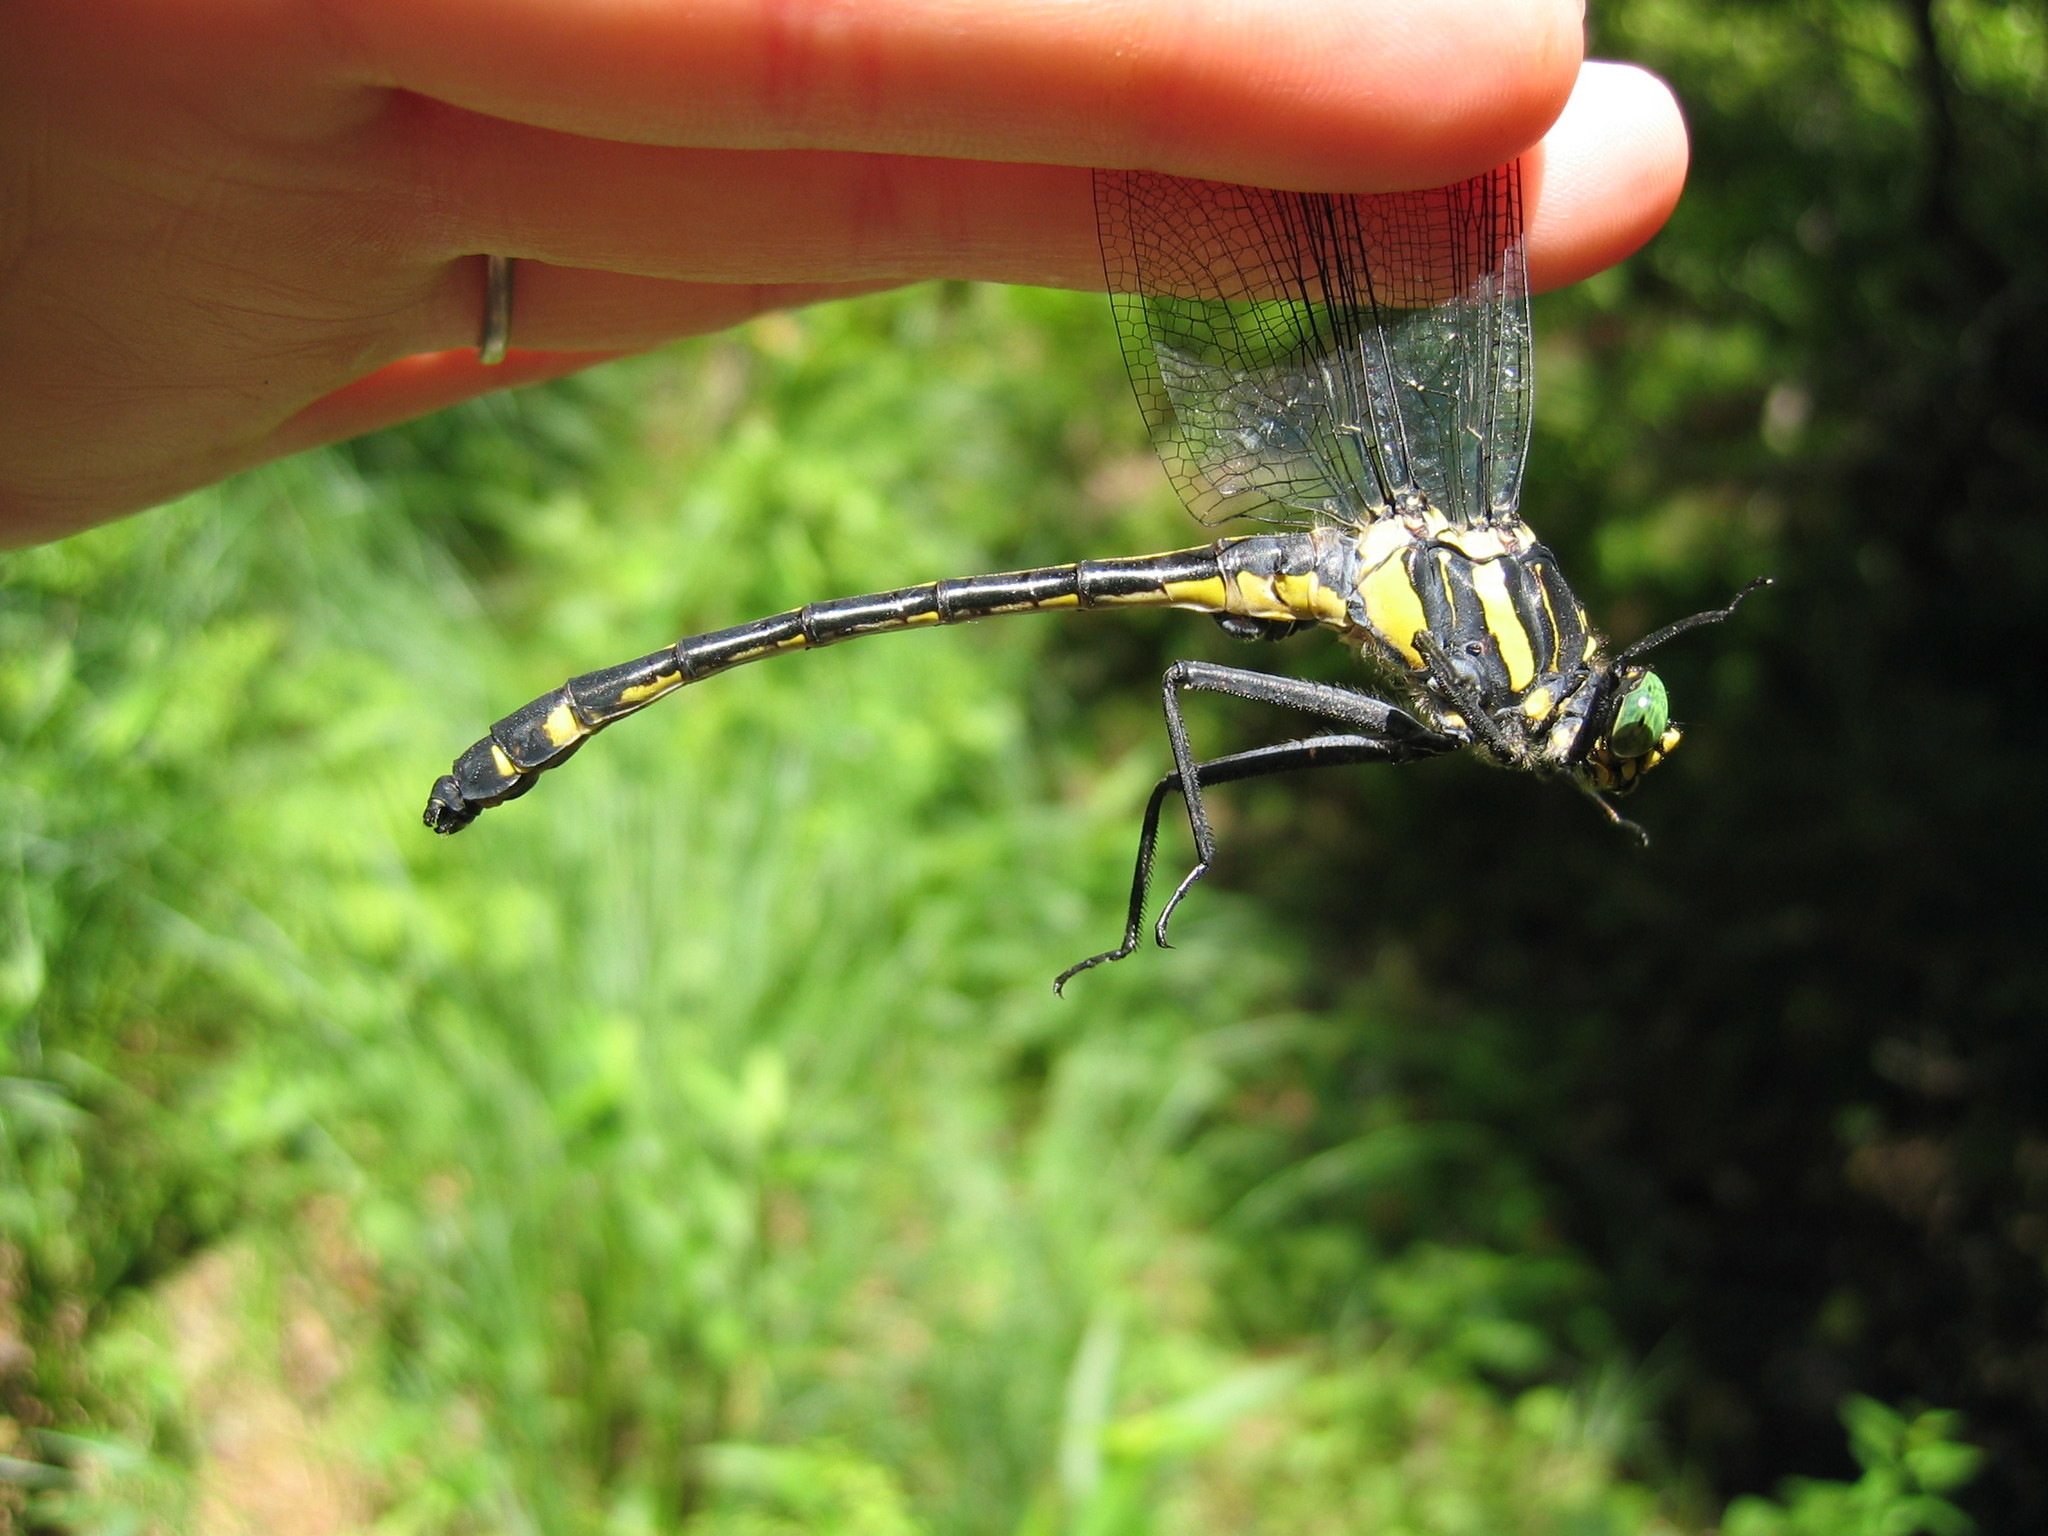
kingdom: Animalia
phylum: Arthropoda
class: Insecta
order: Odonata
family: Gomphidae
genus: Hagenius
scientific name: Hagenius brevistylus
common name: Dragonhunter
